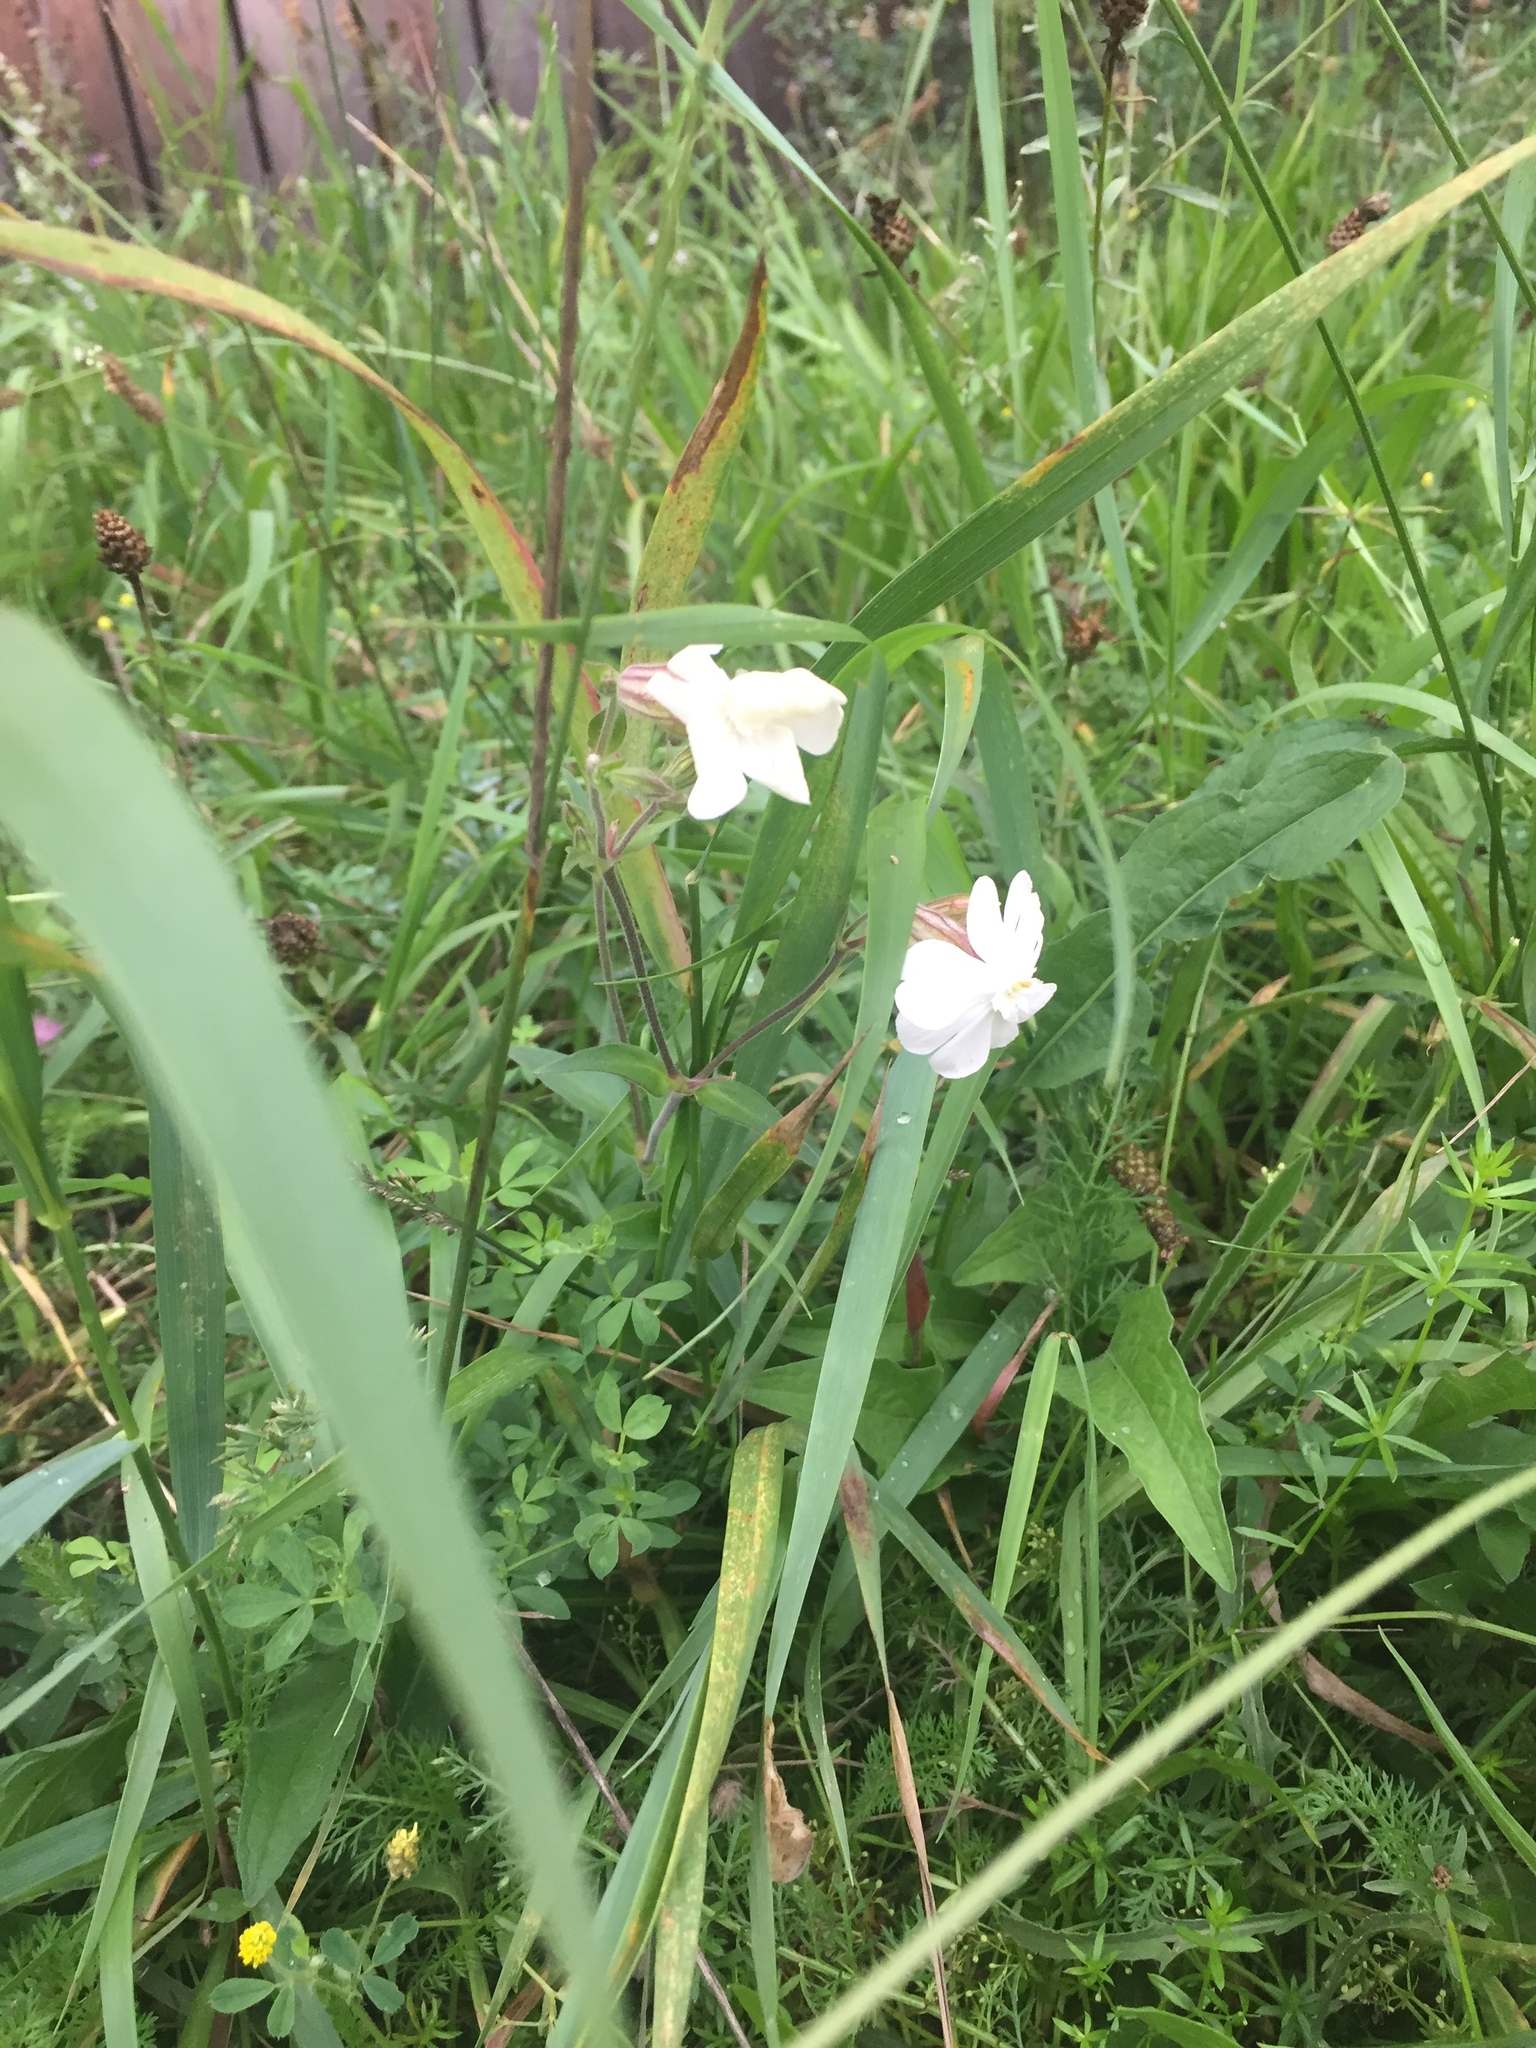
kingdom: Plantae
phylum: Tracheophyta
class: Magnoliopsida
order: Caryophyllales
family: Caryophyllaceae
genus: Silene
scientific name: Silene latifolia
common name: White campion
